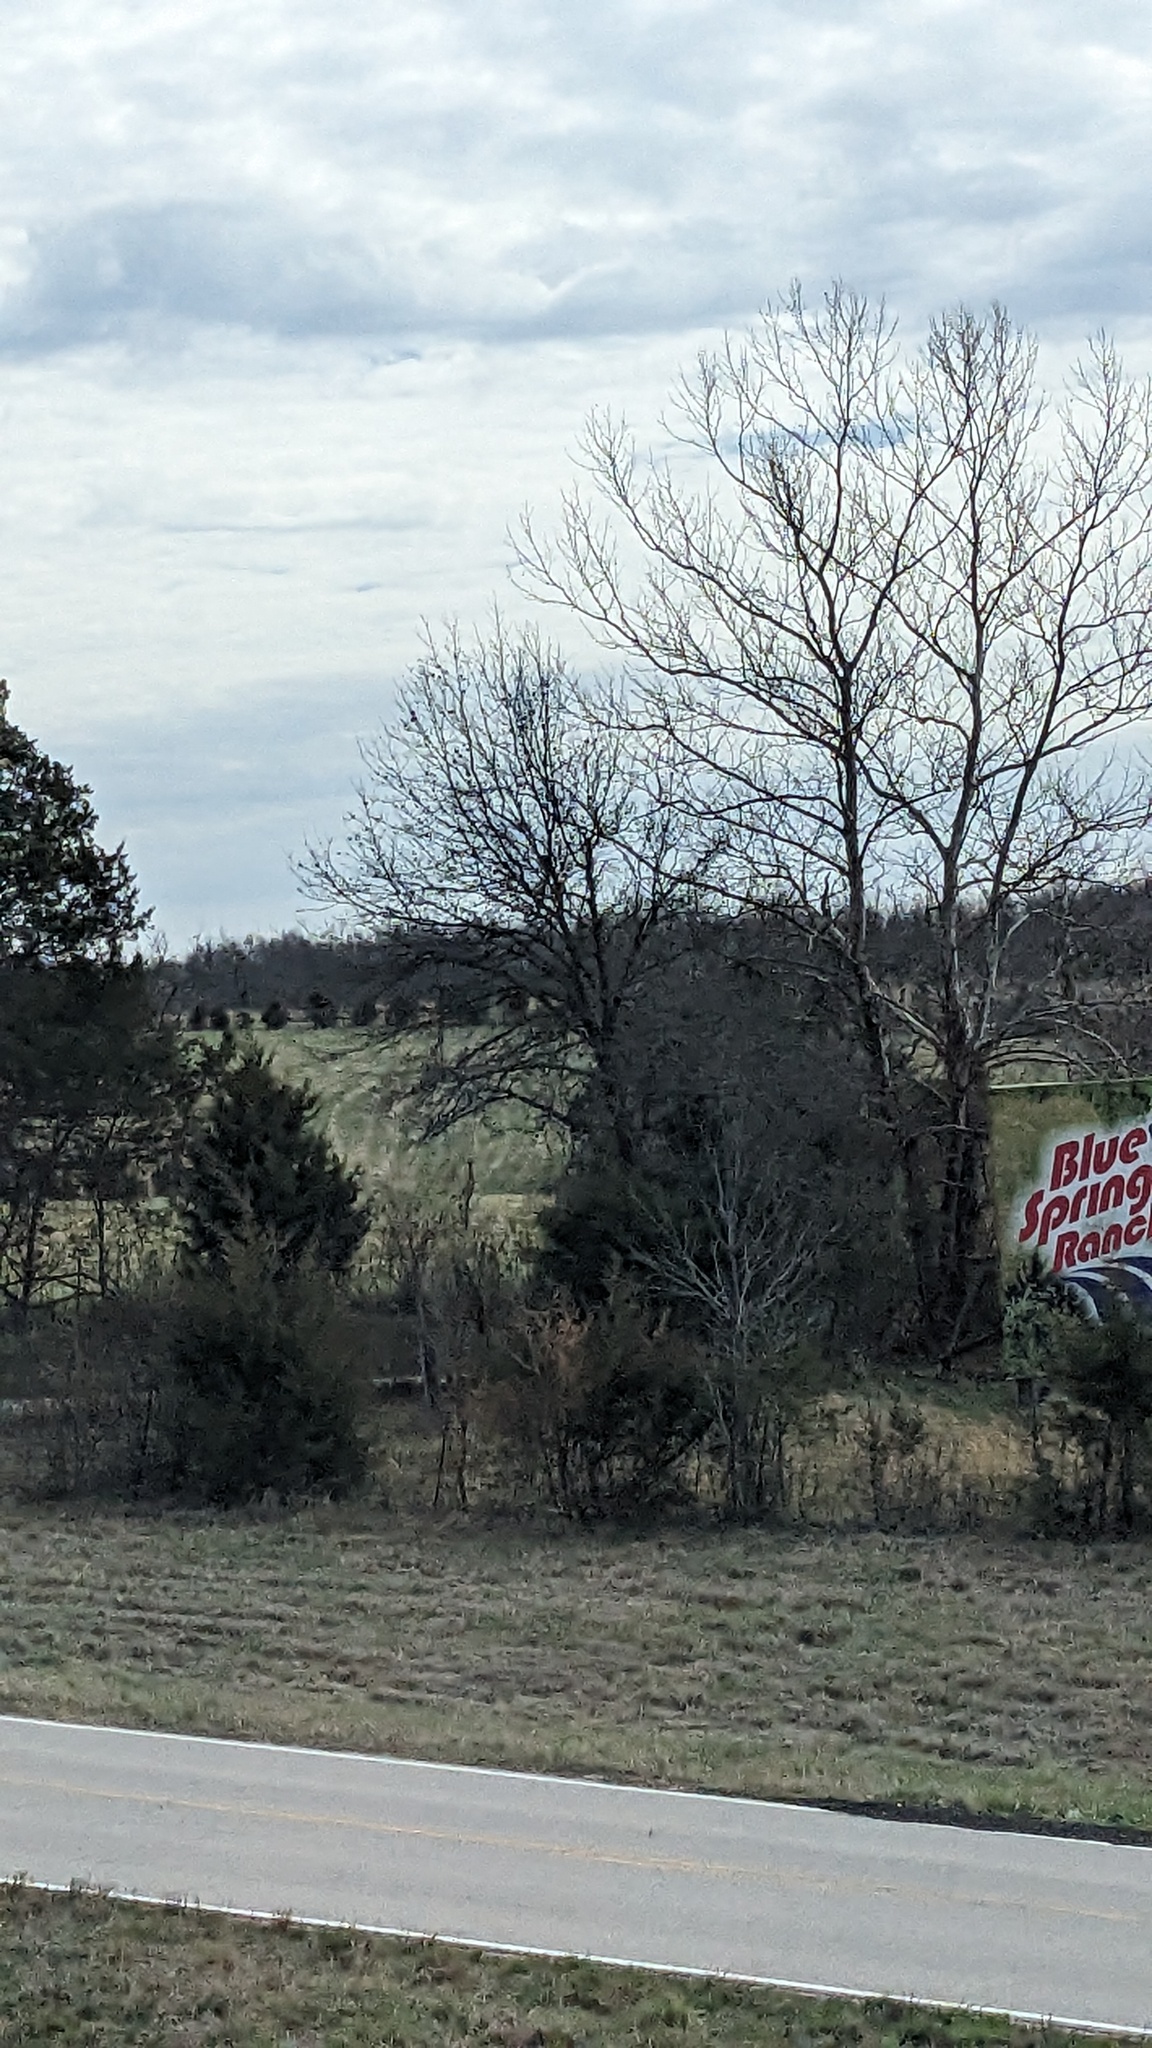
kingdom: Plantae
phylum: Tracheophyta
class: Pinopsida
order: Pinales
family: Cupressaceae
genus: Juniperus
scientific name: Juniperus virginiana
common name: Red juniper
